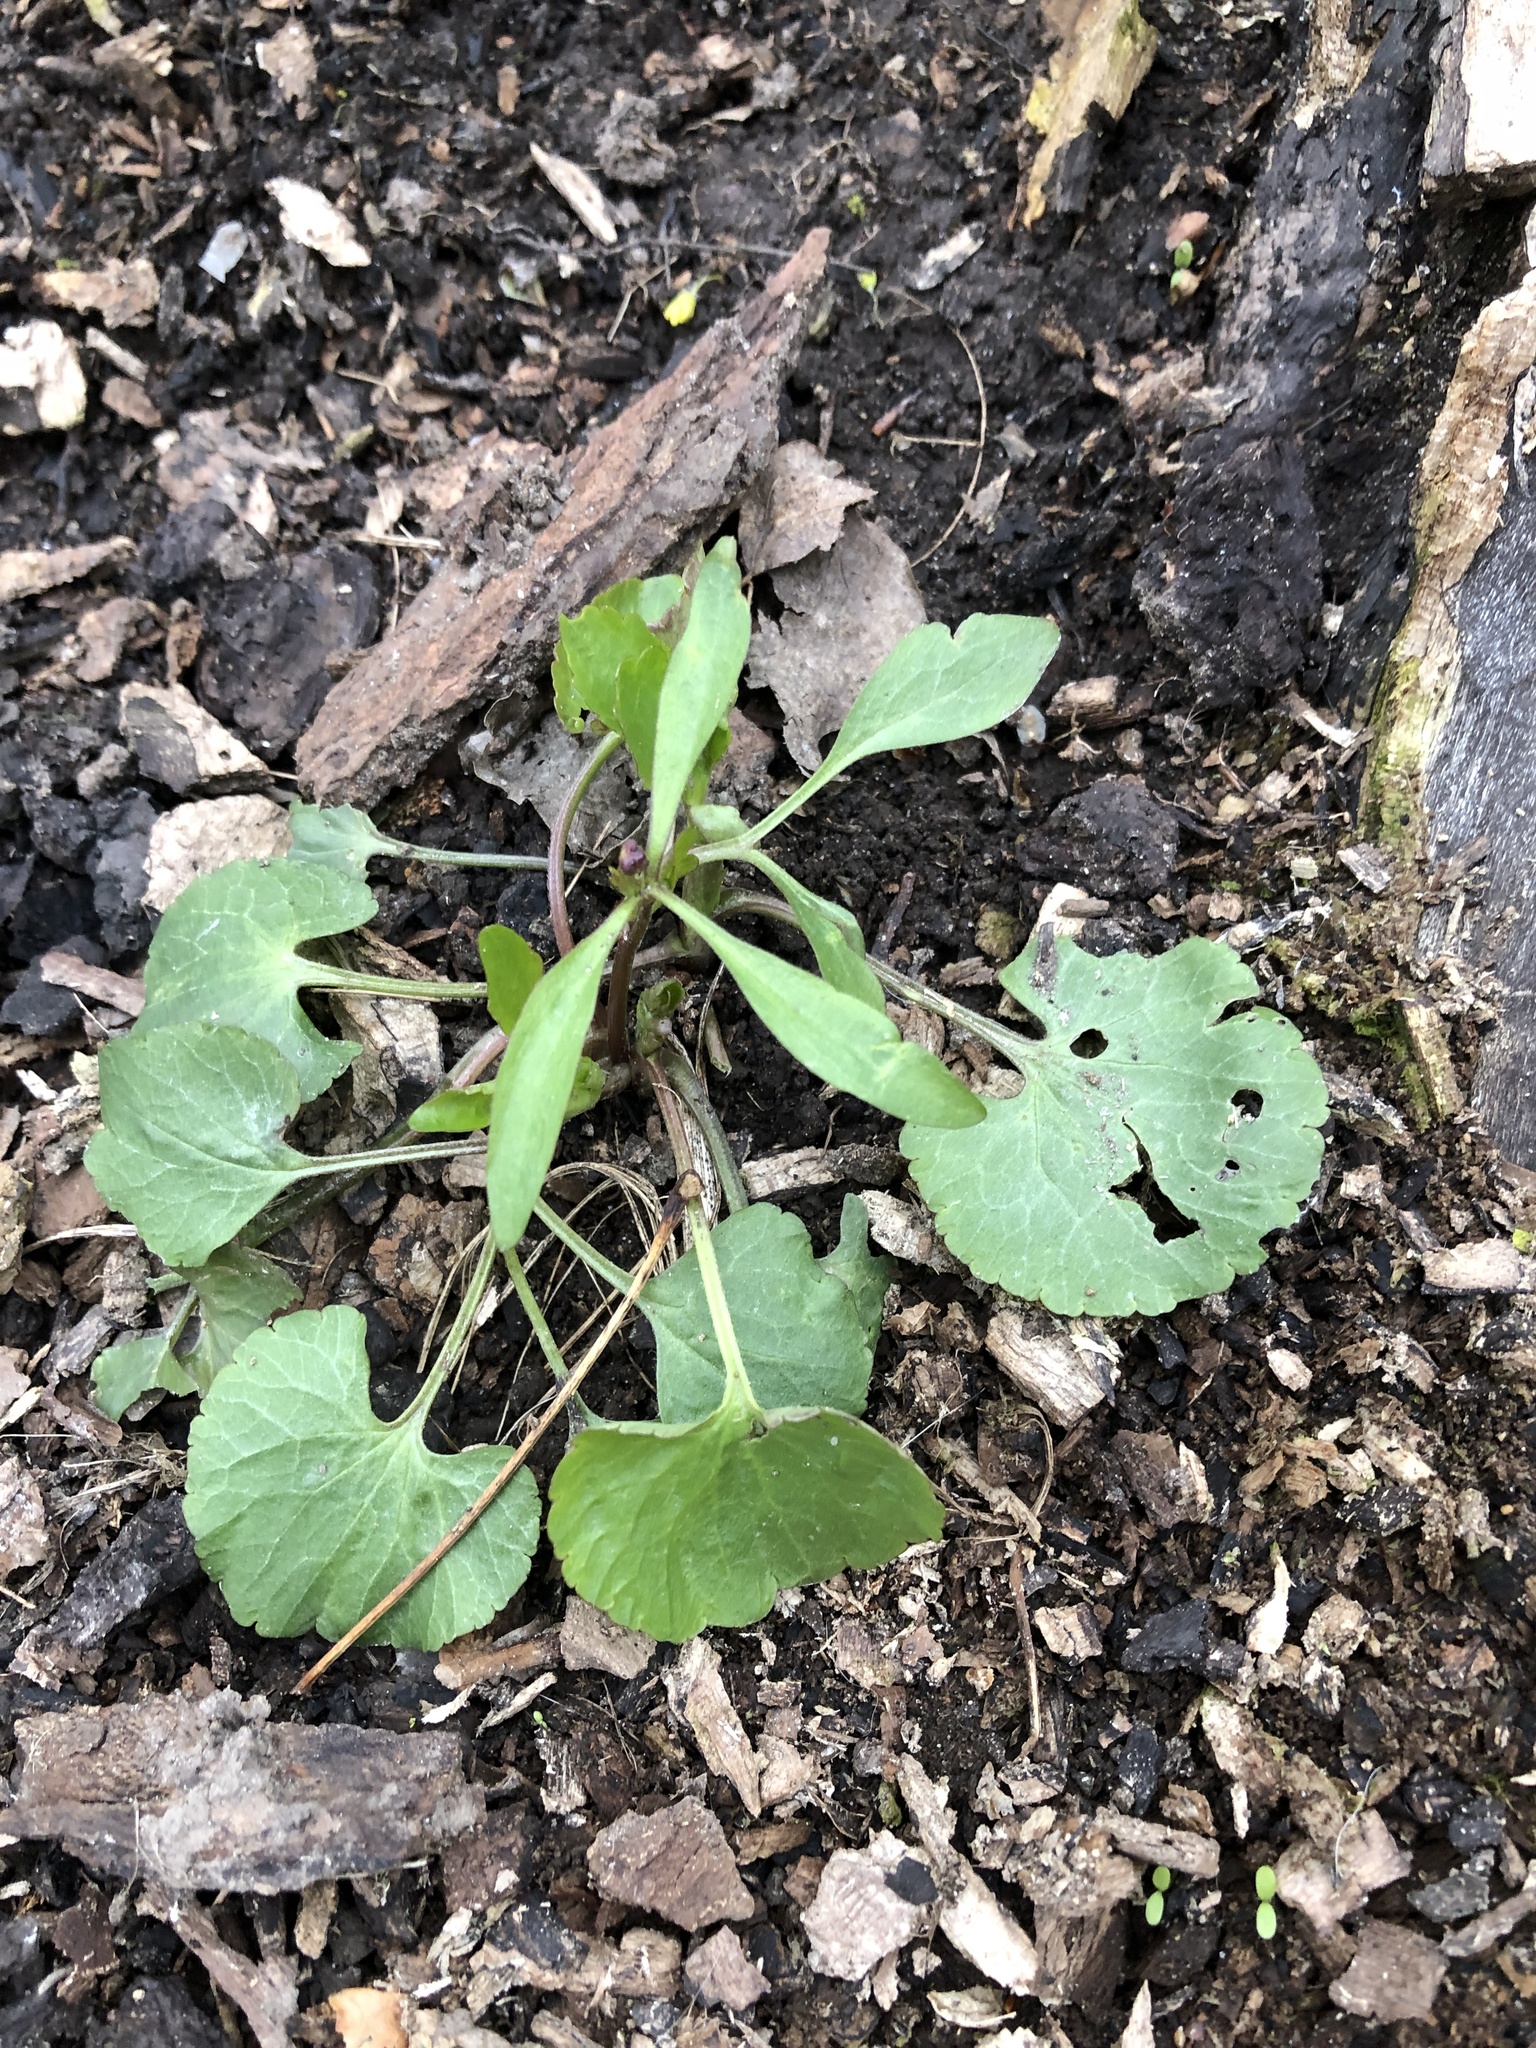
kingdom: Plantae
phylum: Tracheophyta
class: Magnoliopsida
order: Ranunculales
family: Ranunculaceae
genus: Ranunculus
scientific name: Ranunculus abortivus
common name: Early wood buttercup
